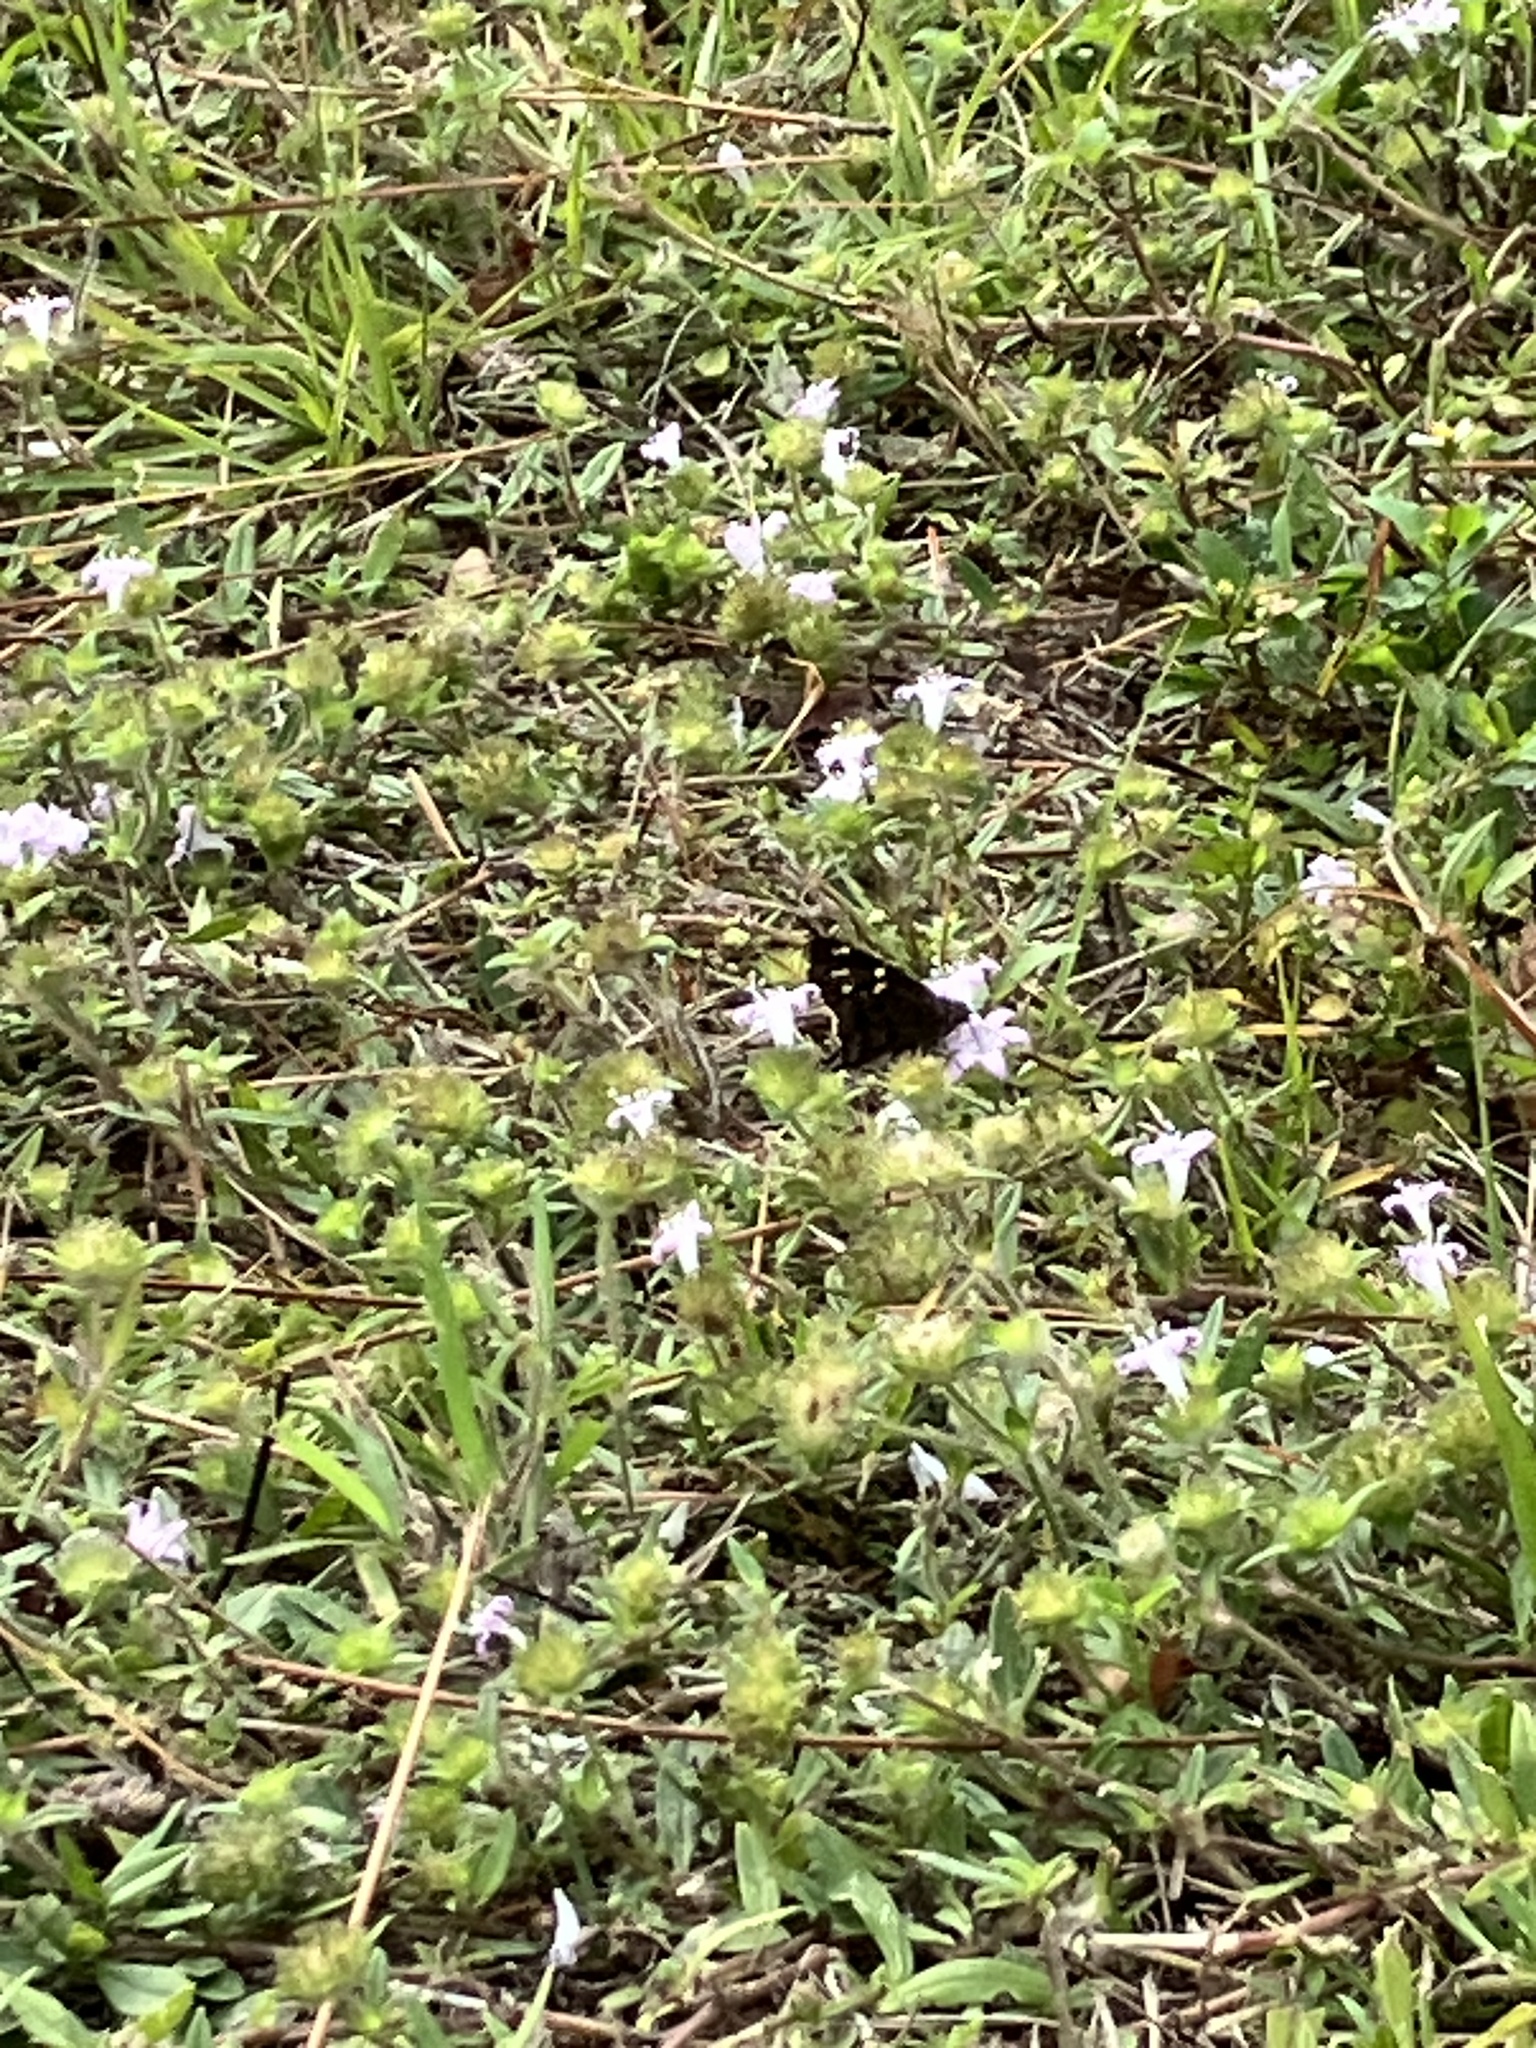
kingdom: Animalia
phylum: Arthropoda
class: Insecta
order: Lepidoptera
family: Hesperiidae
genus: Urbanus
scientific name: Urbanus proteus
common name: Long-tailed skipper
